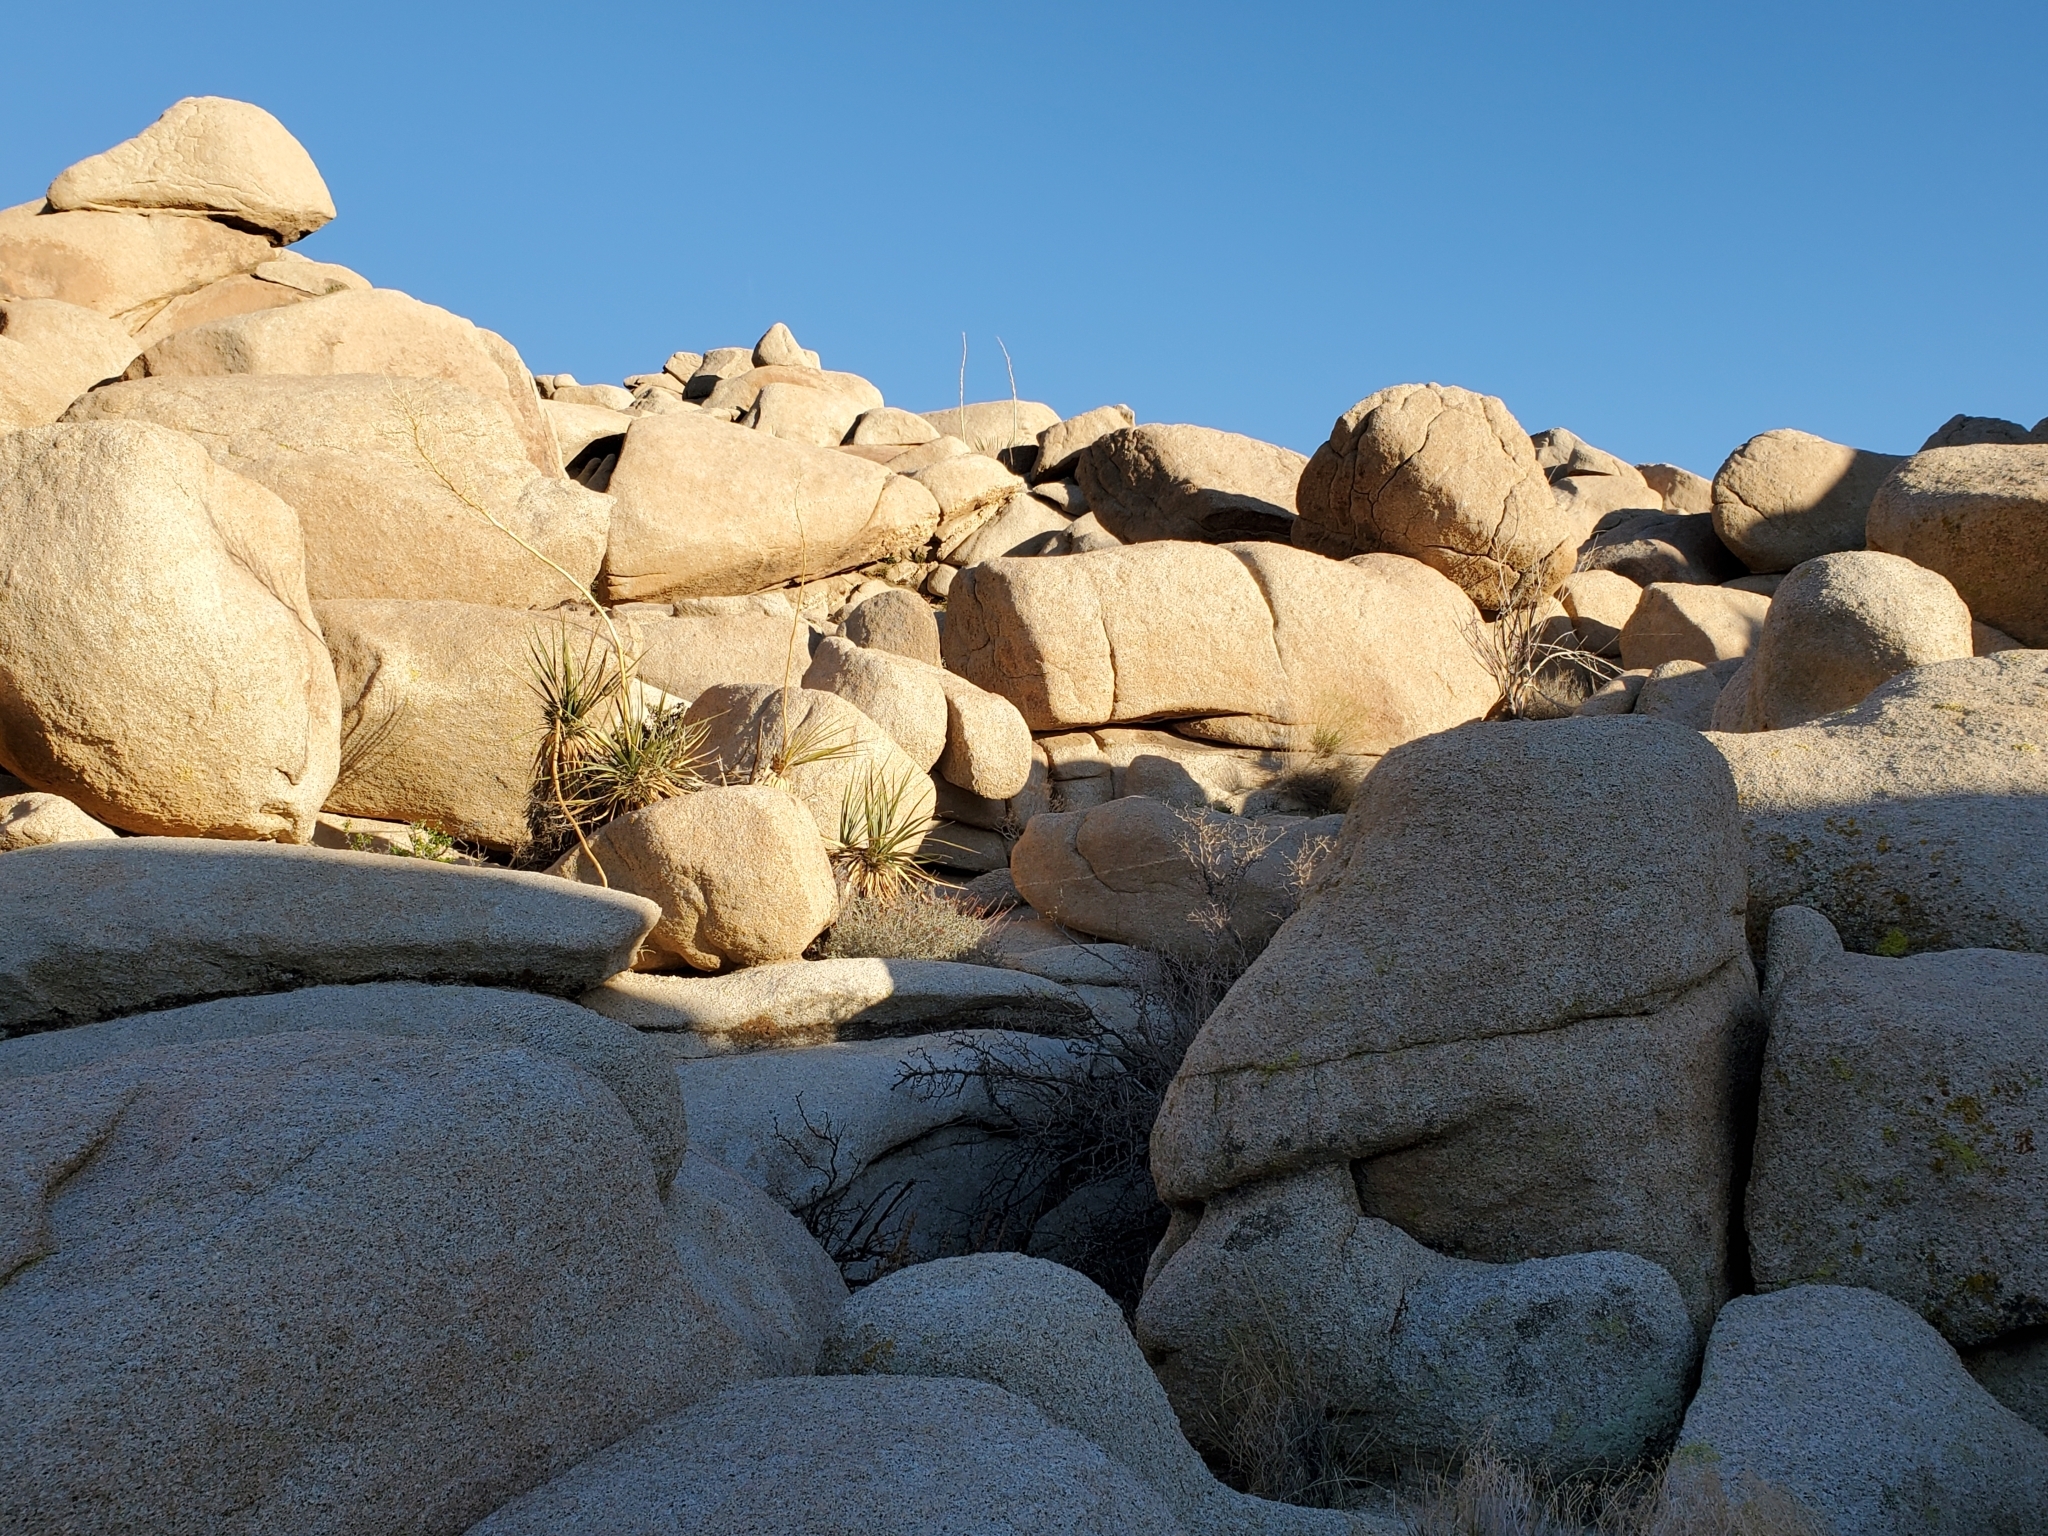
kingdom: Plantae
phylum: Tracheophyta
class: Liliopsida
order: Asparagales
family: Asparagaceae
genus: Nolina
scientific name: Nolina bigelovii
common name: Bigelow bear-grass
